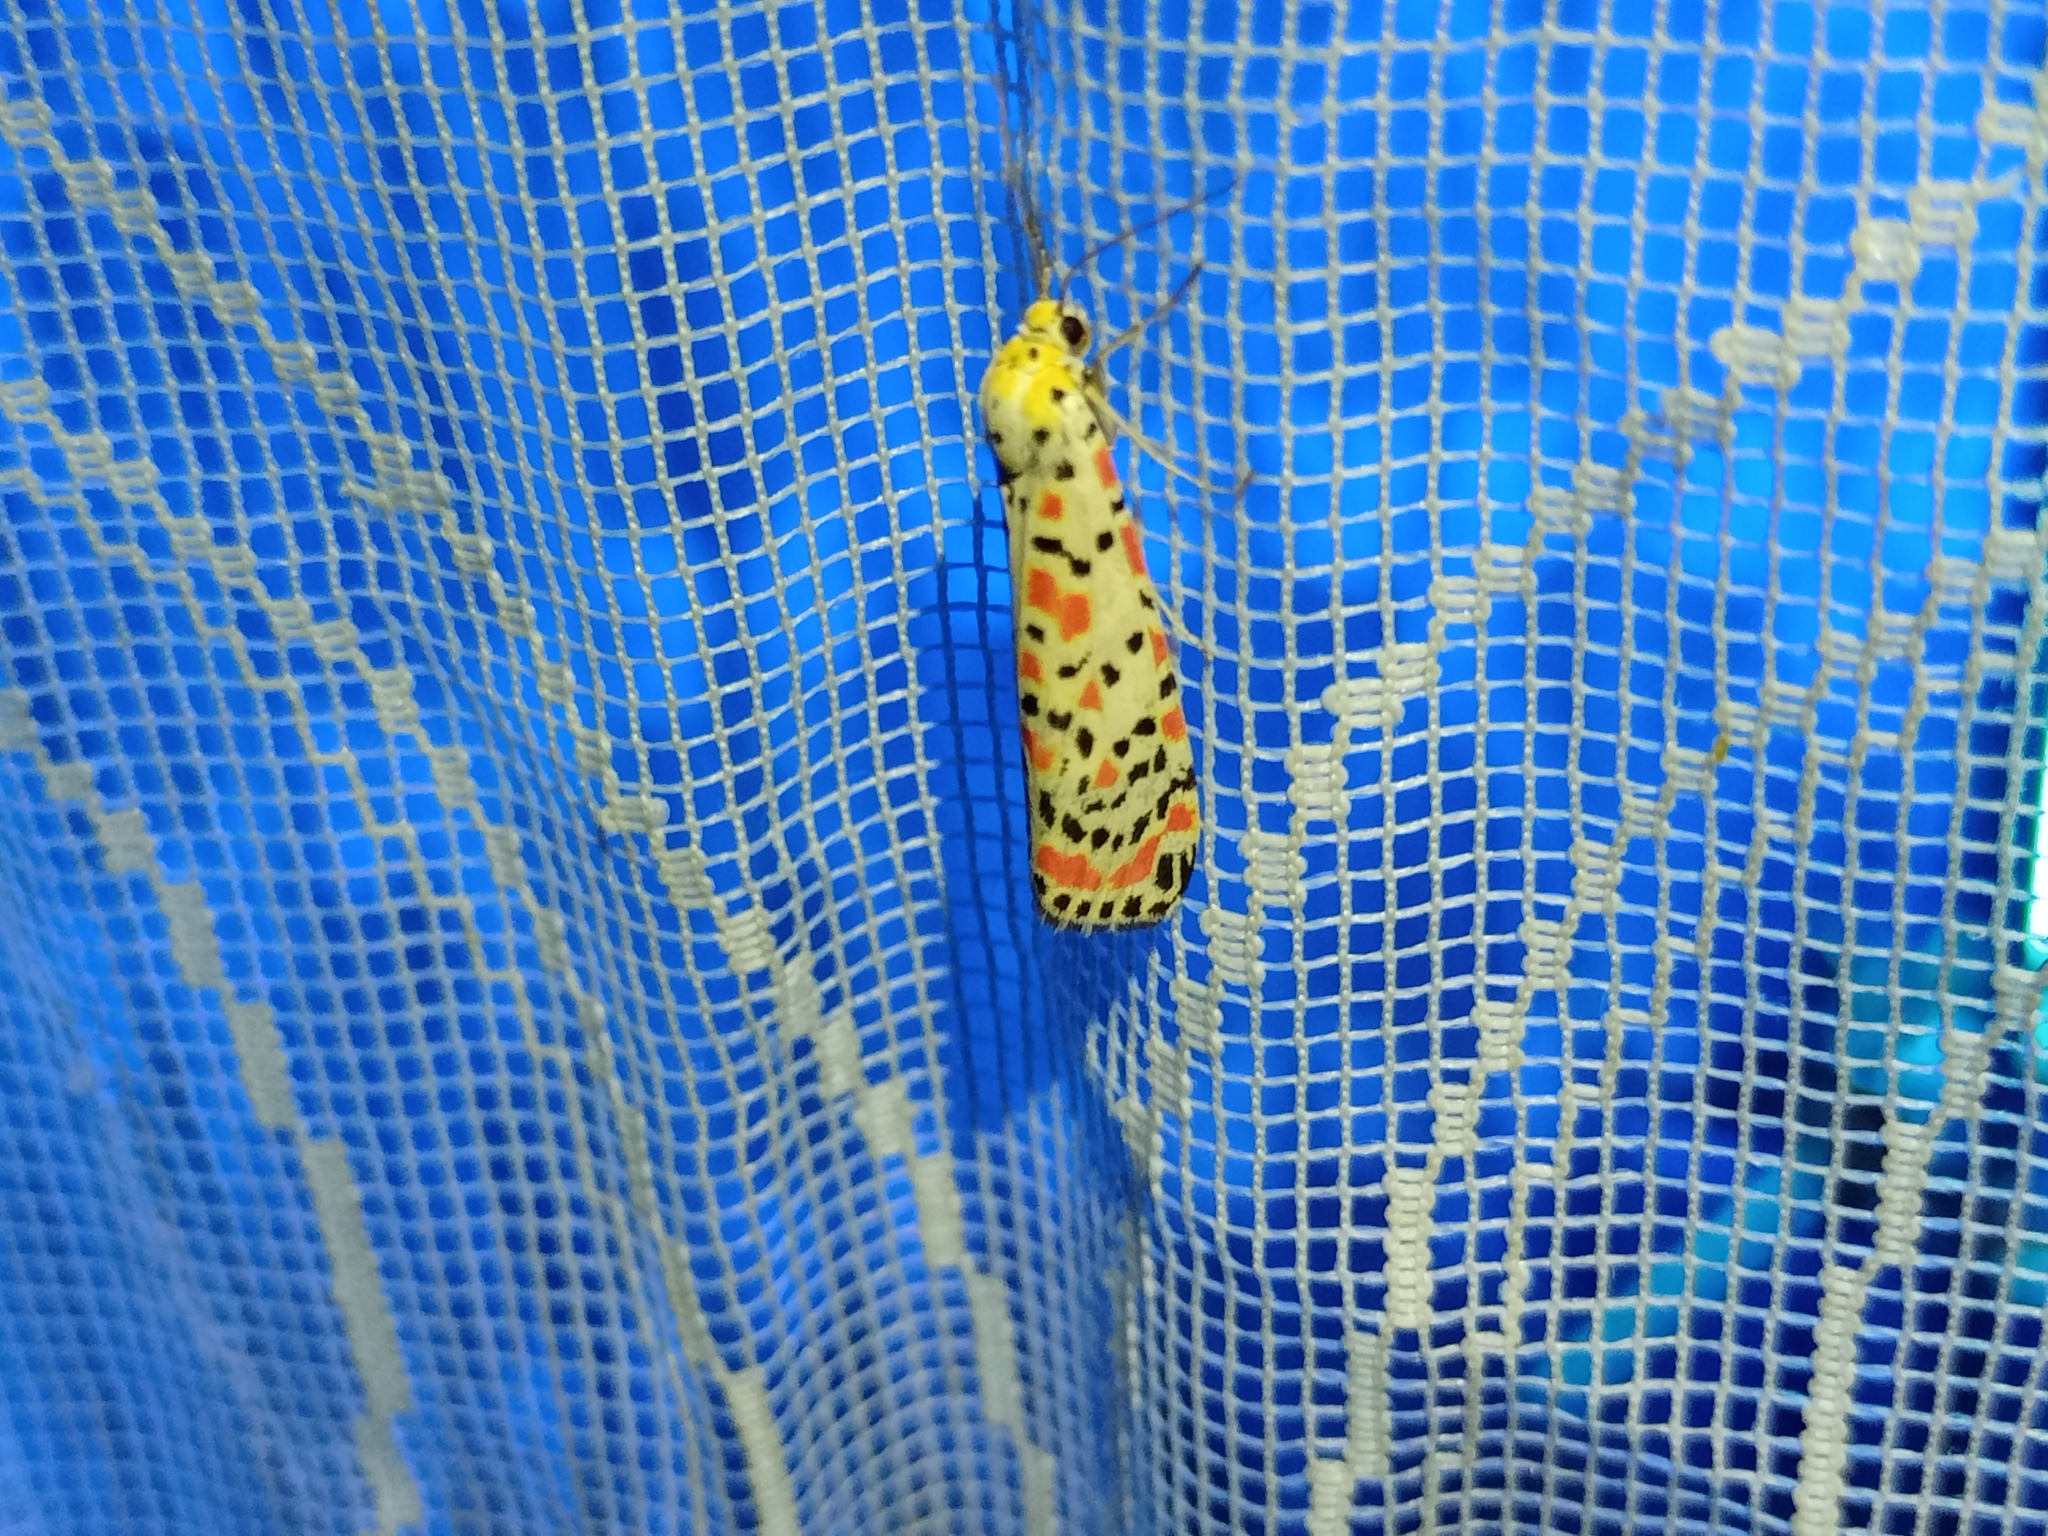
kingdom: Animalia
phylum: Arthropoda
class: Insecta
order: Lepidoptera
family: Erebidae
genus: Utetheisa
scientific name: Utetheisa pulchella
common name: Crimson speckled
